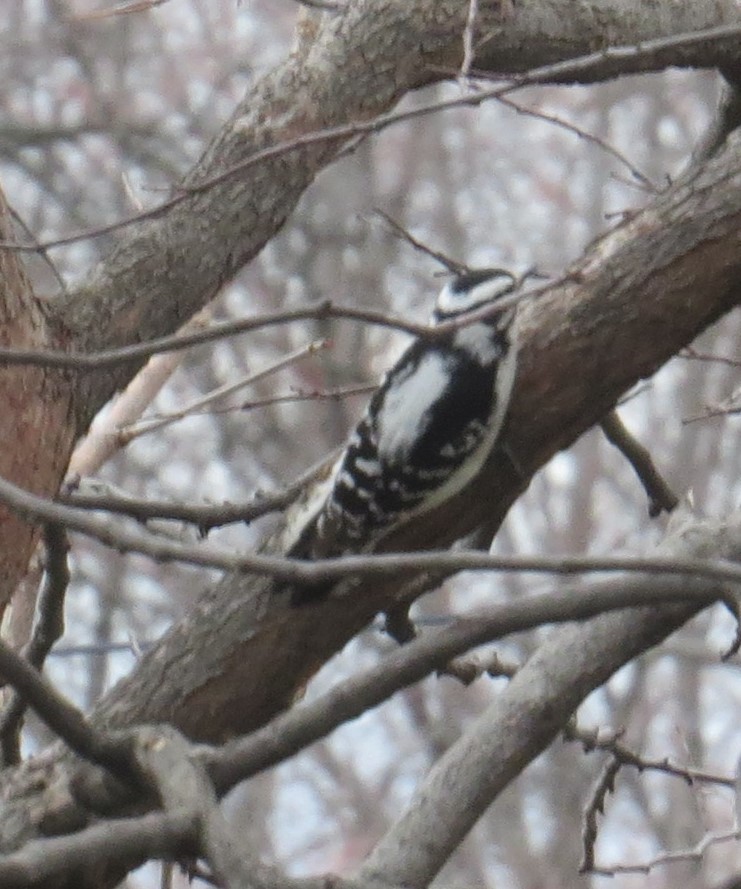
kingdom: Animalia
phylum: Chordata
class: Aves
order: Piciformes
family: Picidae
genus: Dryobates
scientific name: Dryobates pubescens
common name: Downy woodpecker
